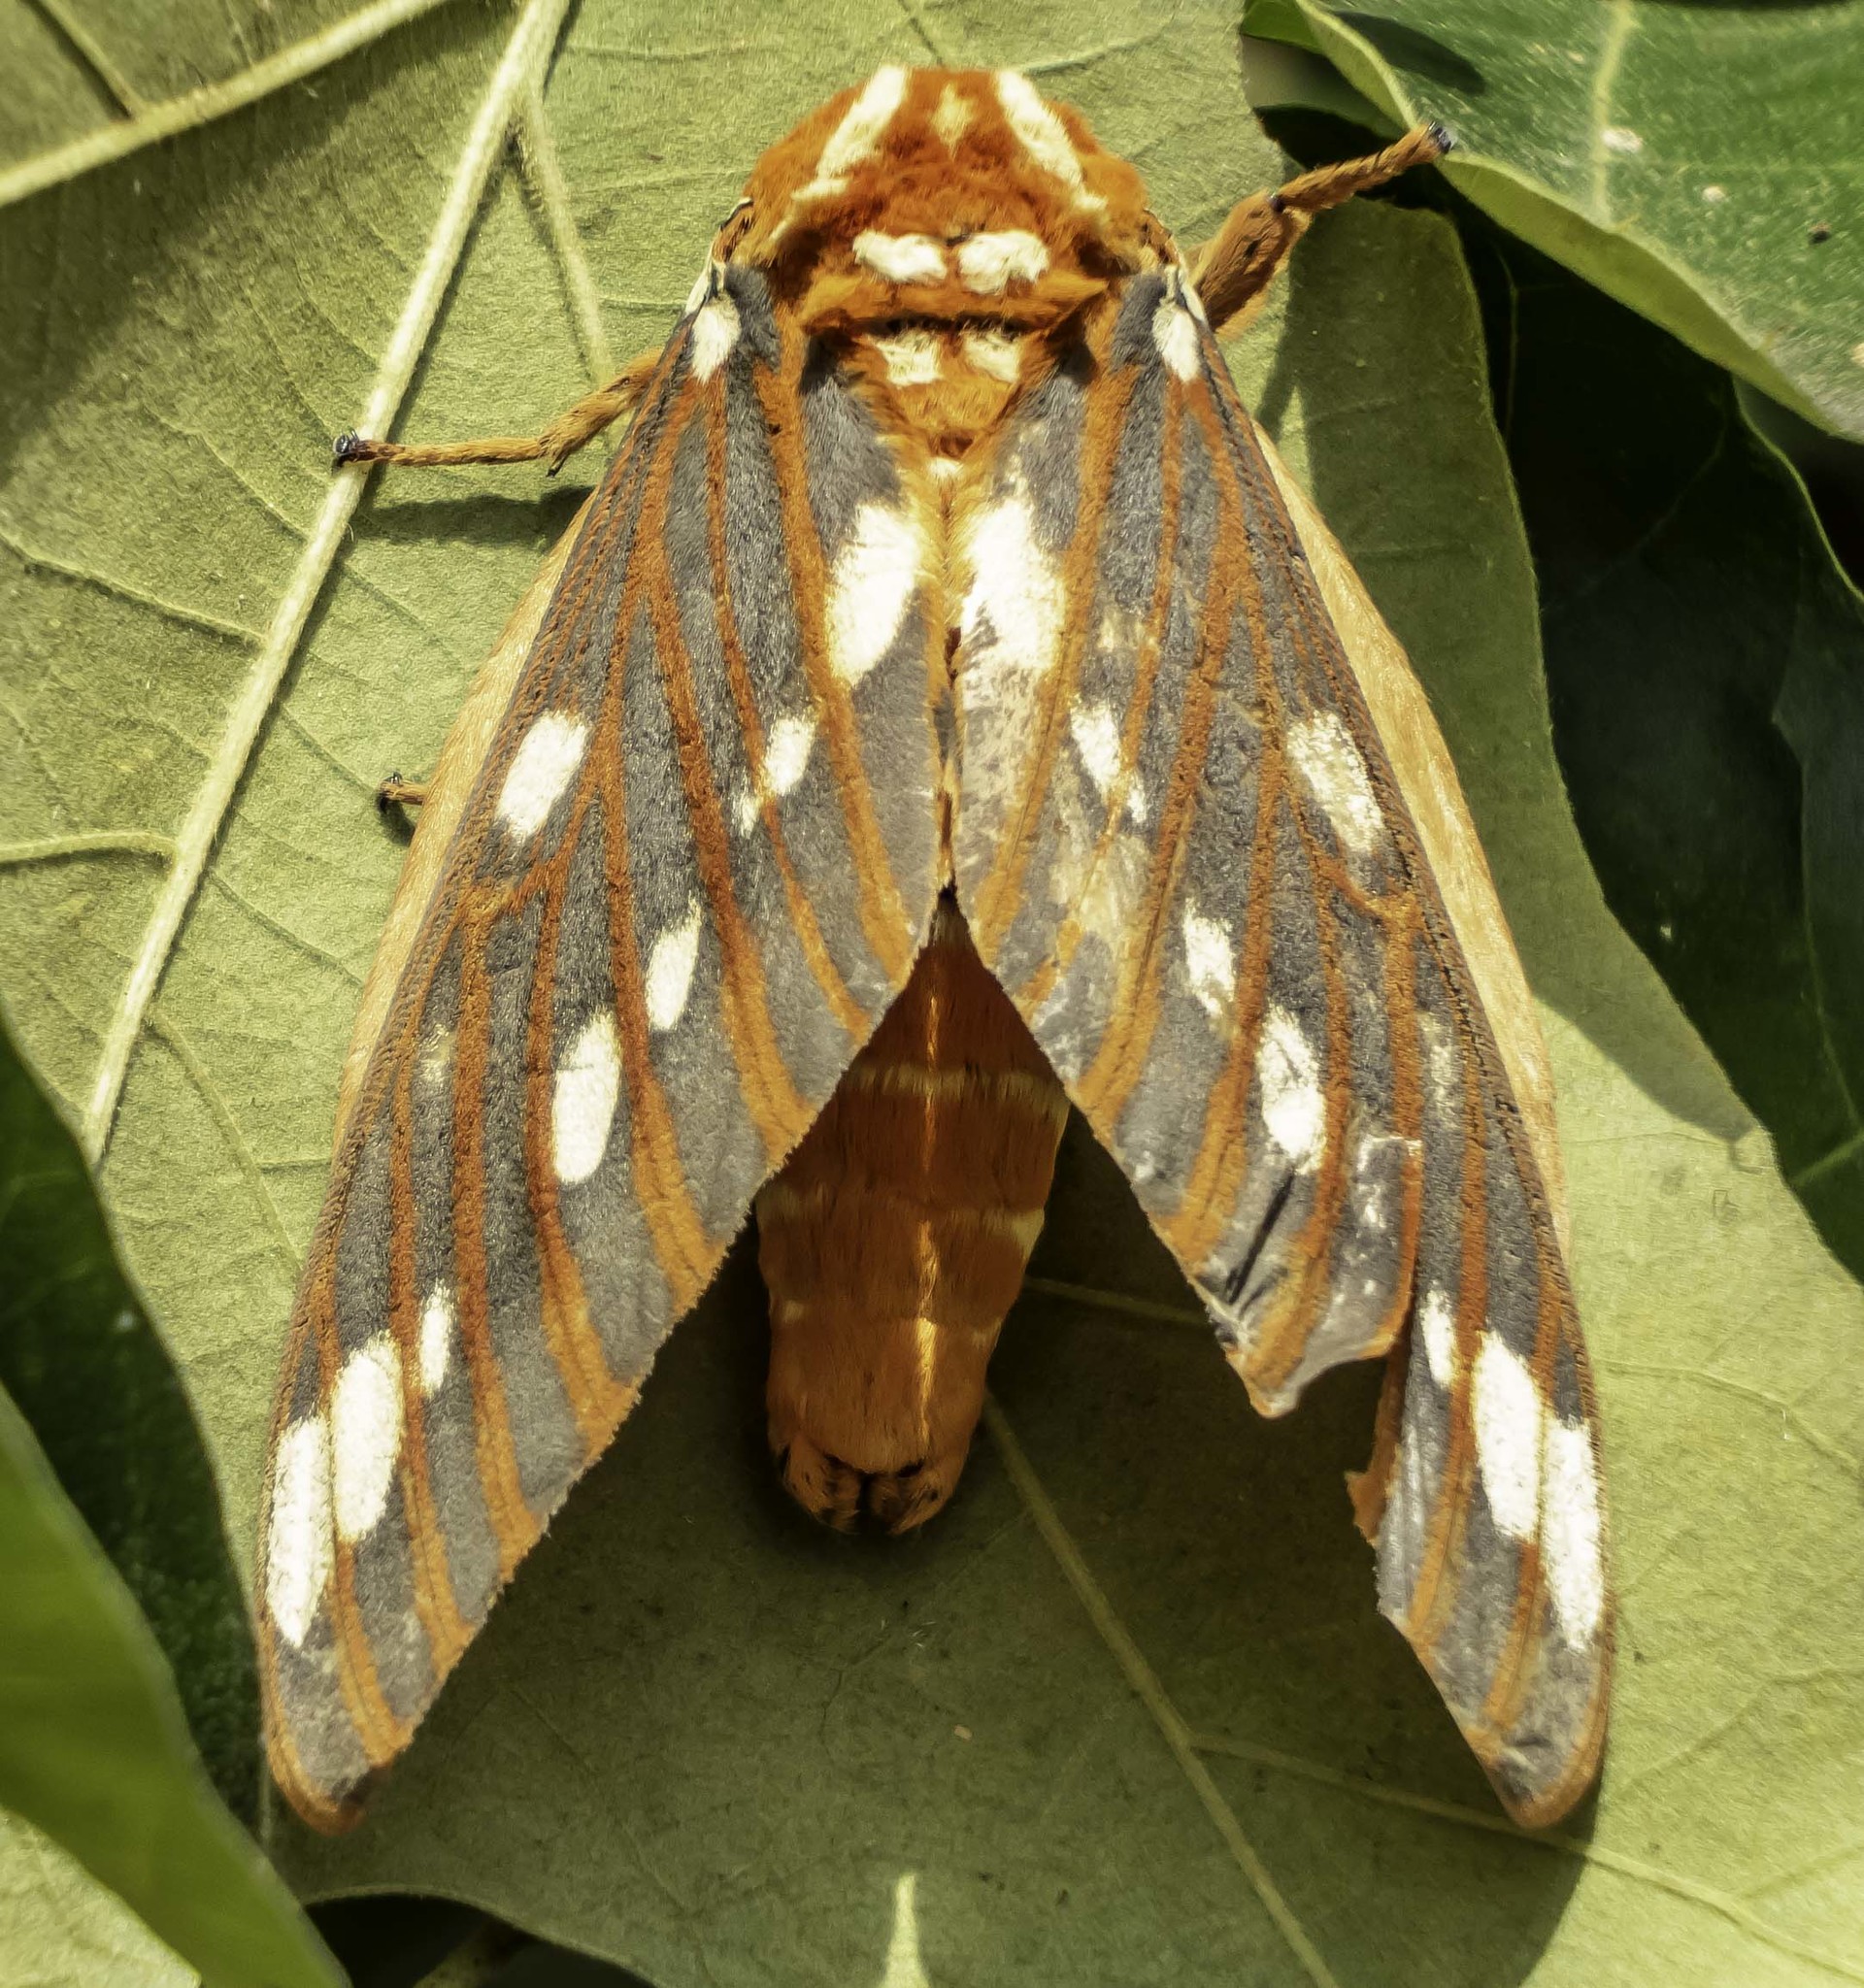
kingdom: Animalia
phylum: Arthropoda
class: Insecta
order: Lepidoptera
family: Saturniidae
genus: Citheronia
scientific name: Citheronia regalis
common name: Hickory horned devil
